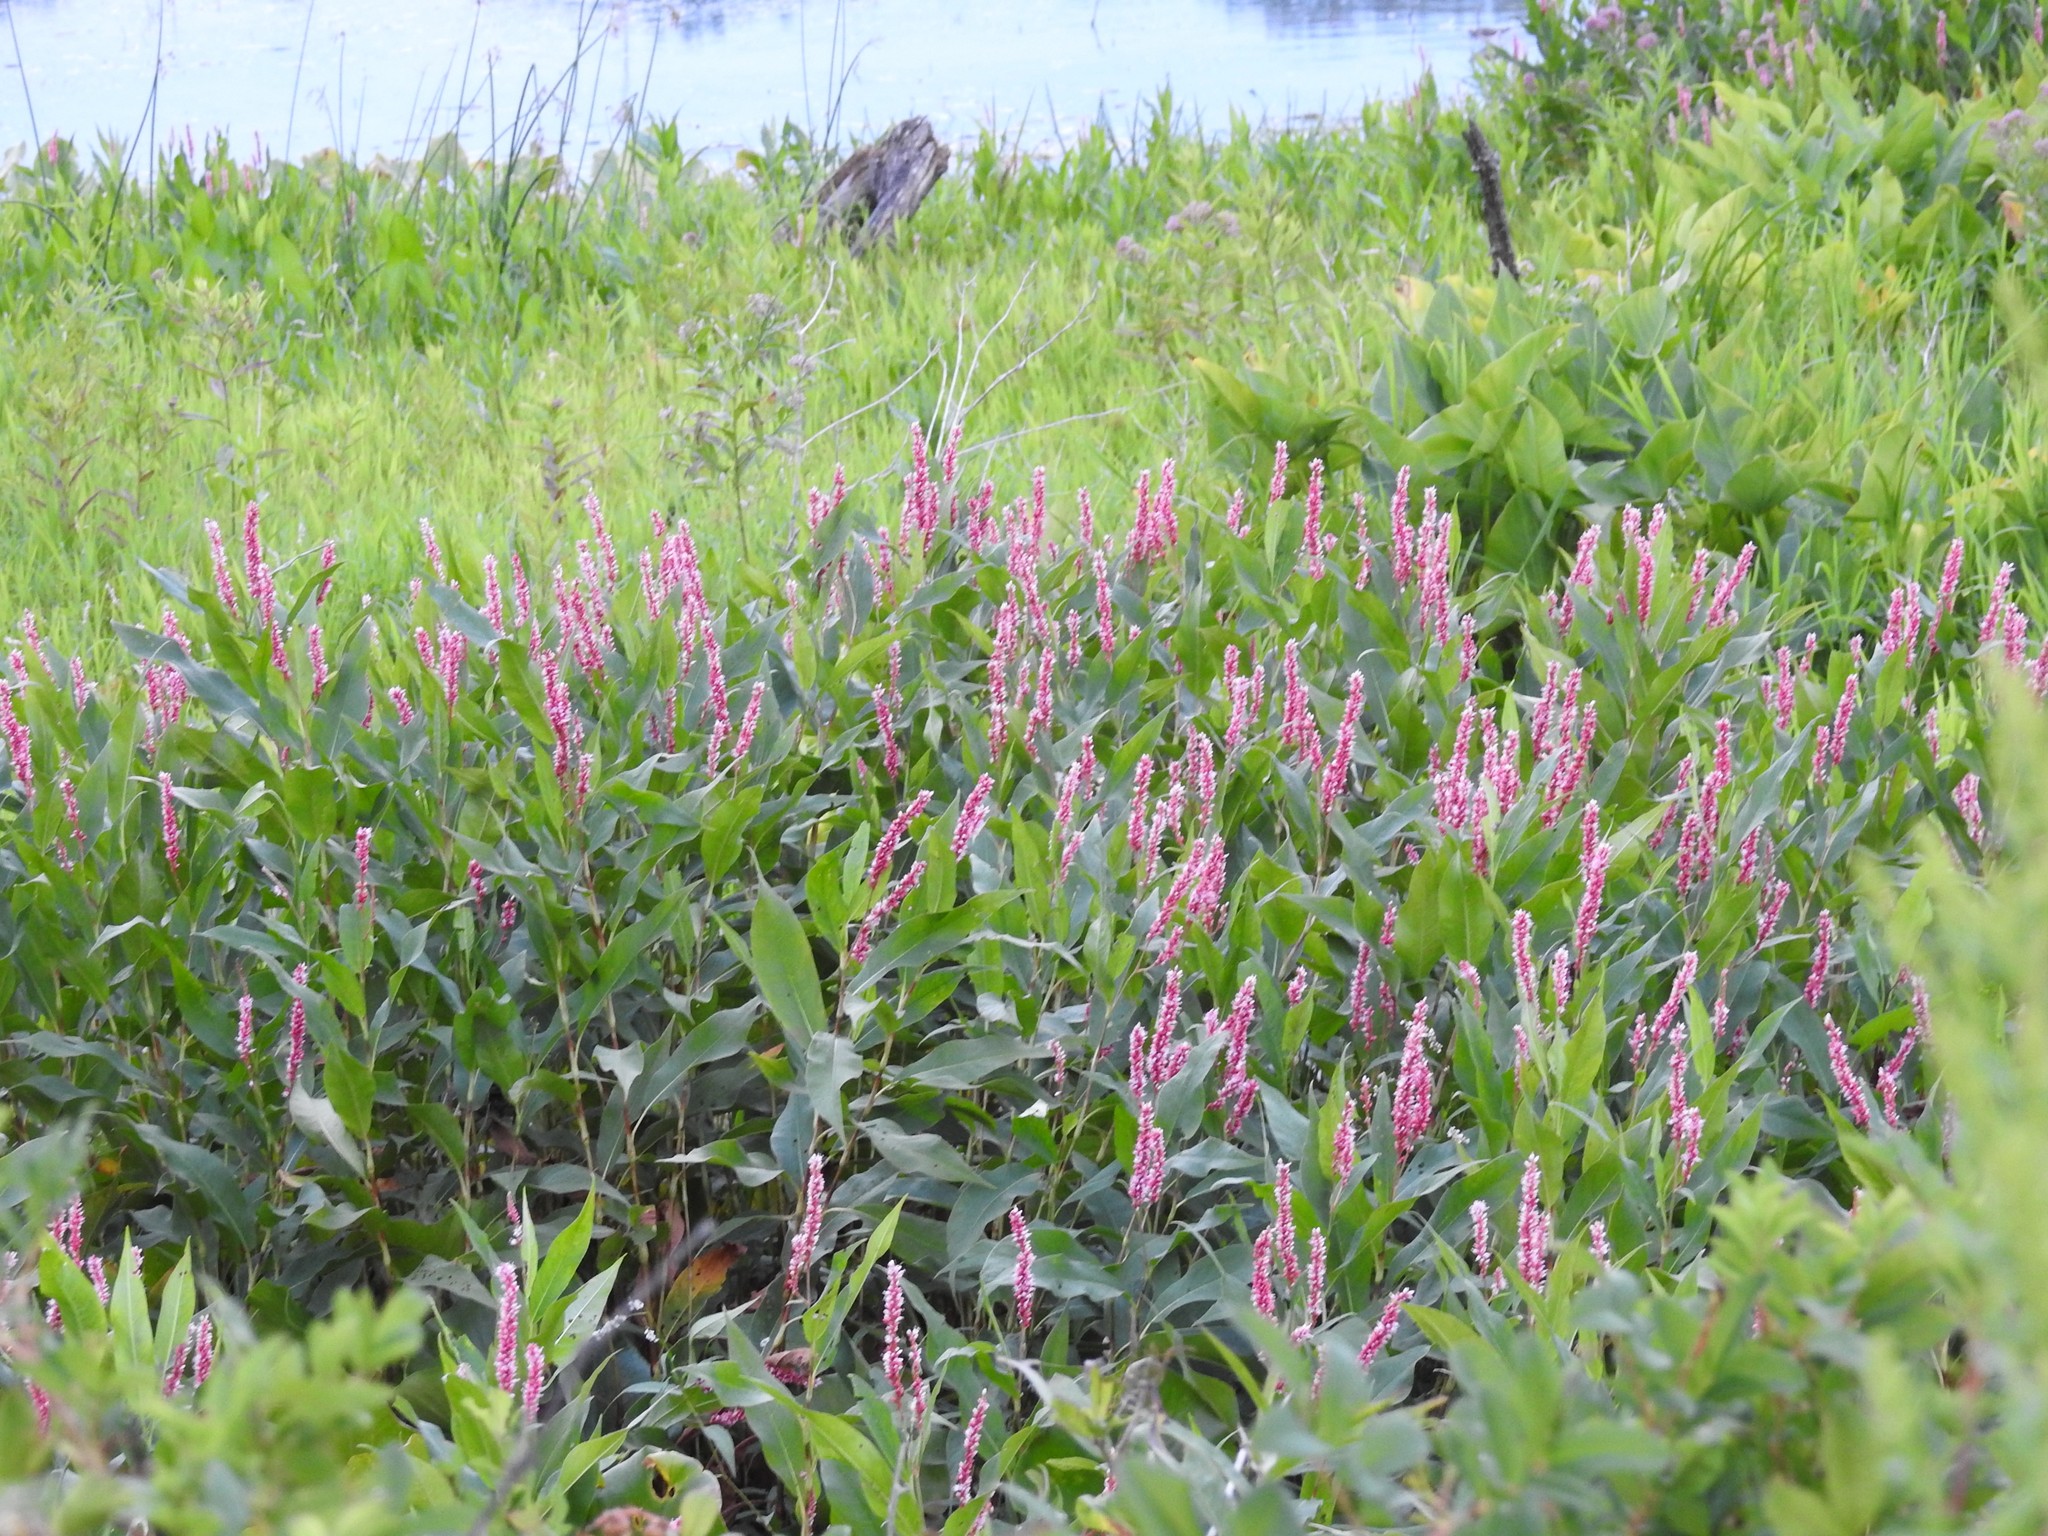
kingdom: Plantae
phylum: Tracheophyta
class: Magnoliopsida
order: Caryophyllales
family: Polygonaceae
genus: Persicaria
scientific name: Persicaria amphibia
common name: Amphibious bistort
